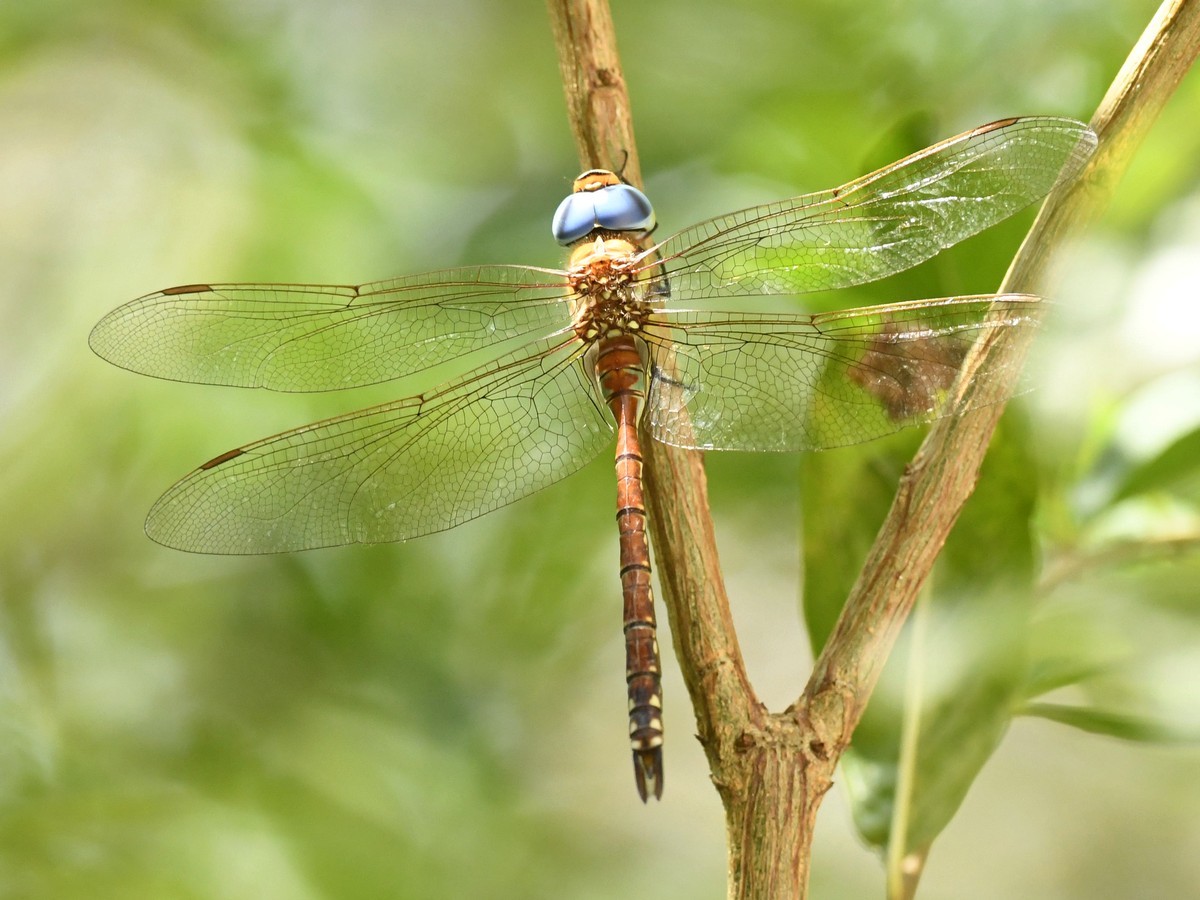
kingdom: Animalia
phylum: Arthropoda
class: Insecta
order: Odonata
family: Aeshnidae
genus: Anaciaeschna
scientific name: Anaciaeschna jaspidea
